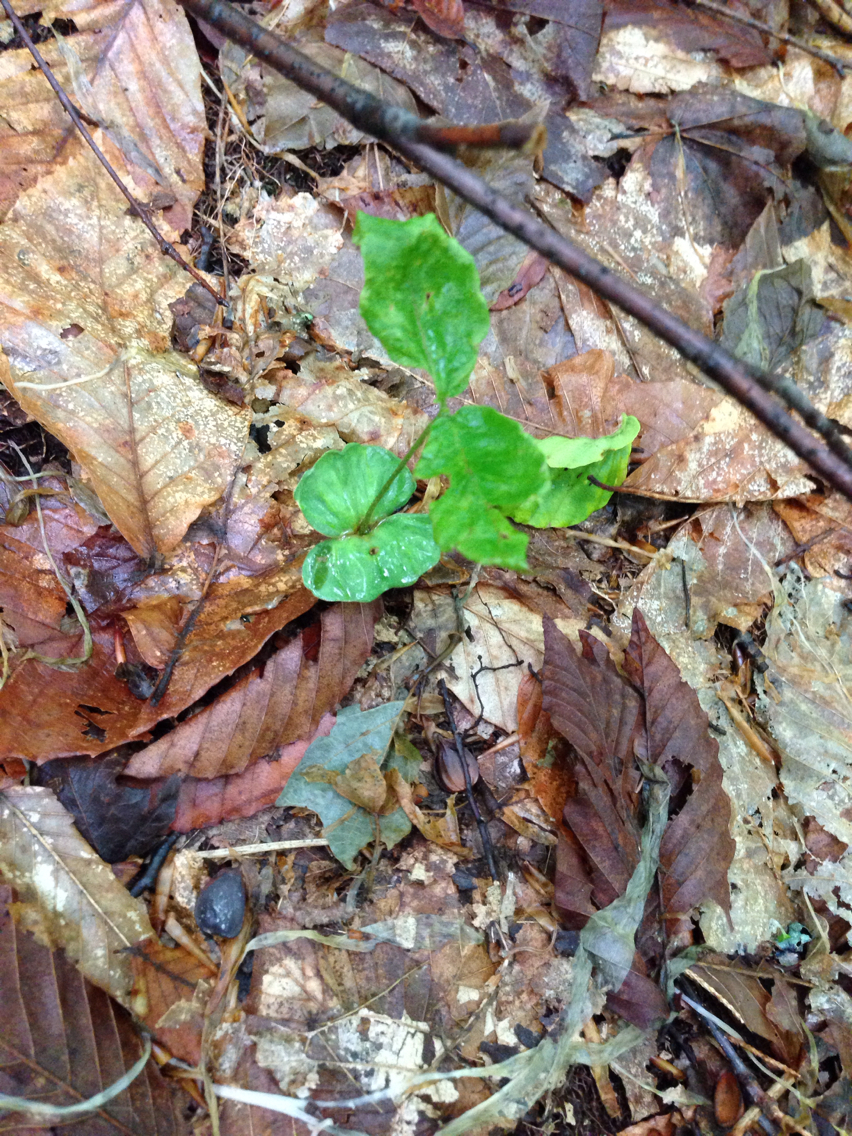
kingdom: Plantae
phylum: Tracheophyta
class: Magnoliopsida
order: Fagales
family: Fagaceae
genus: Fagus
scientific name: Fagus grandifolia
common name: American beech
